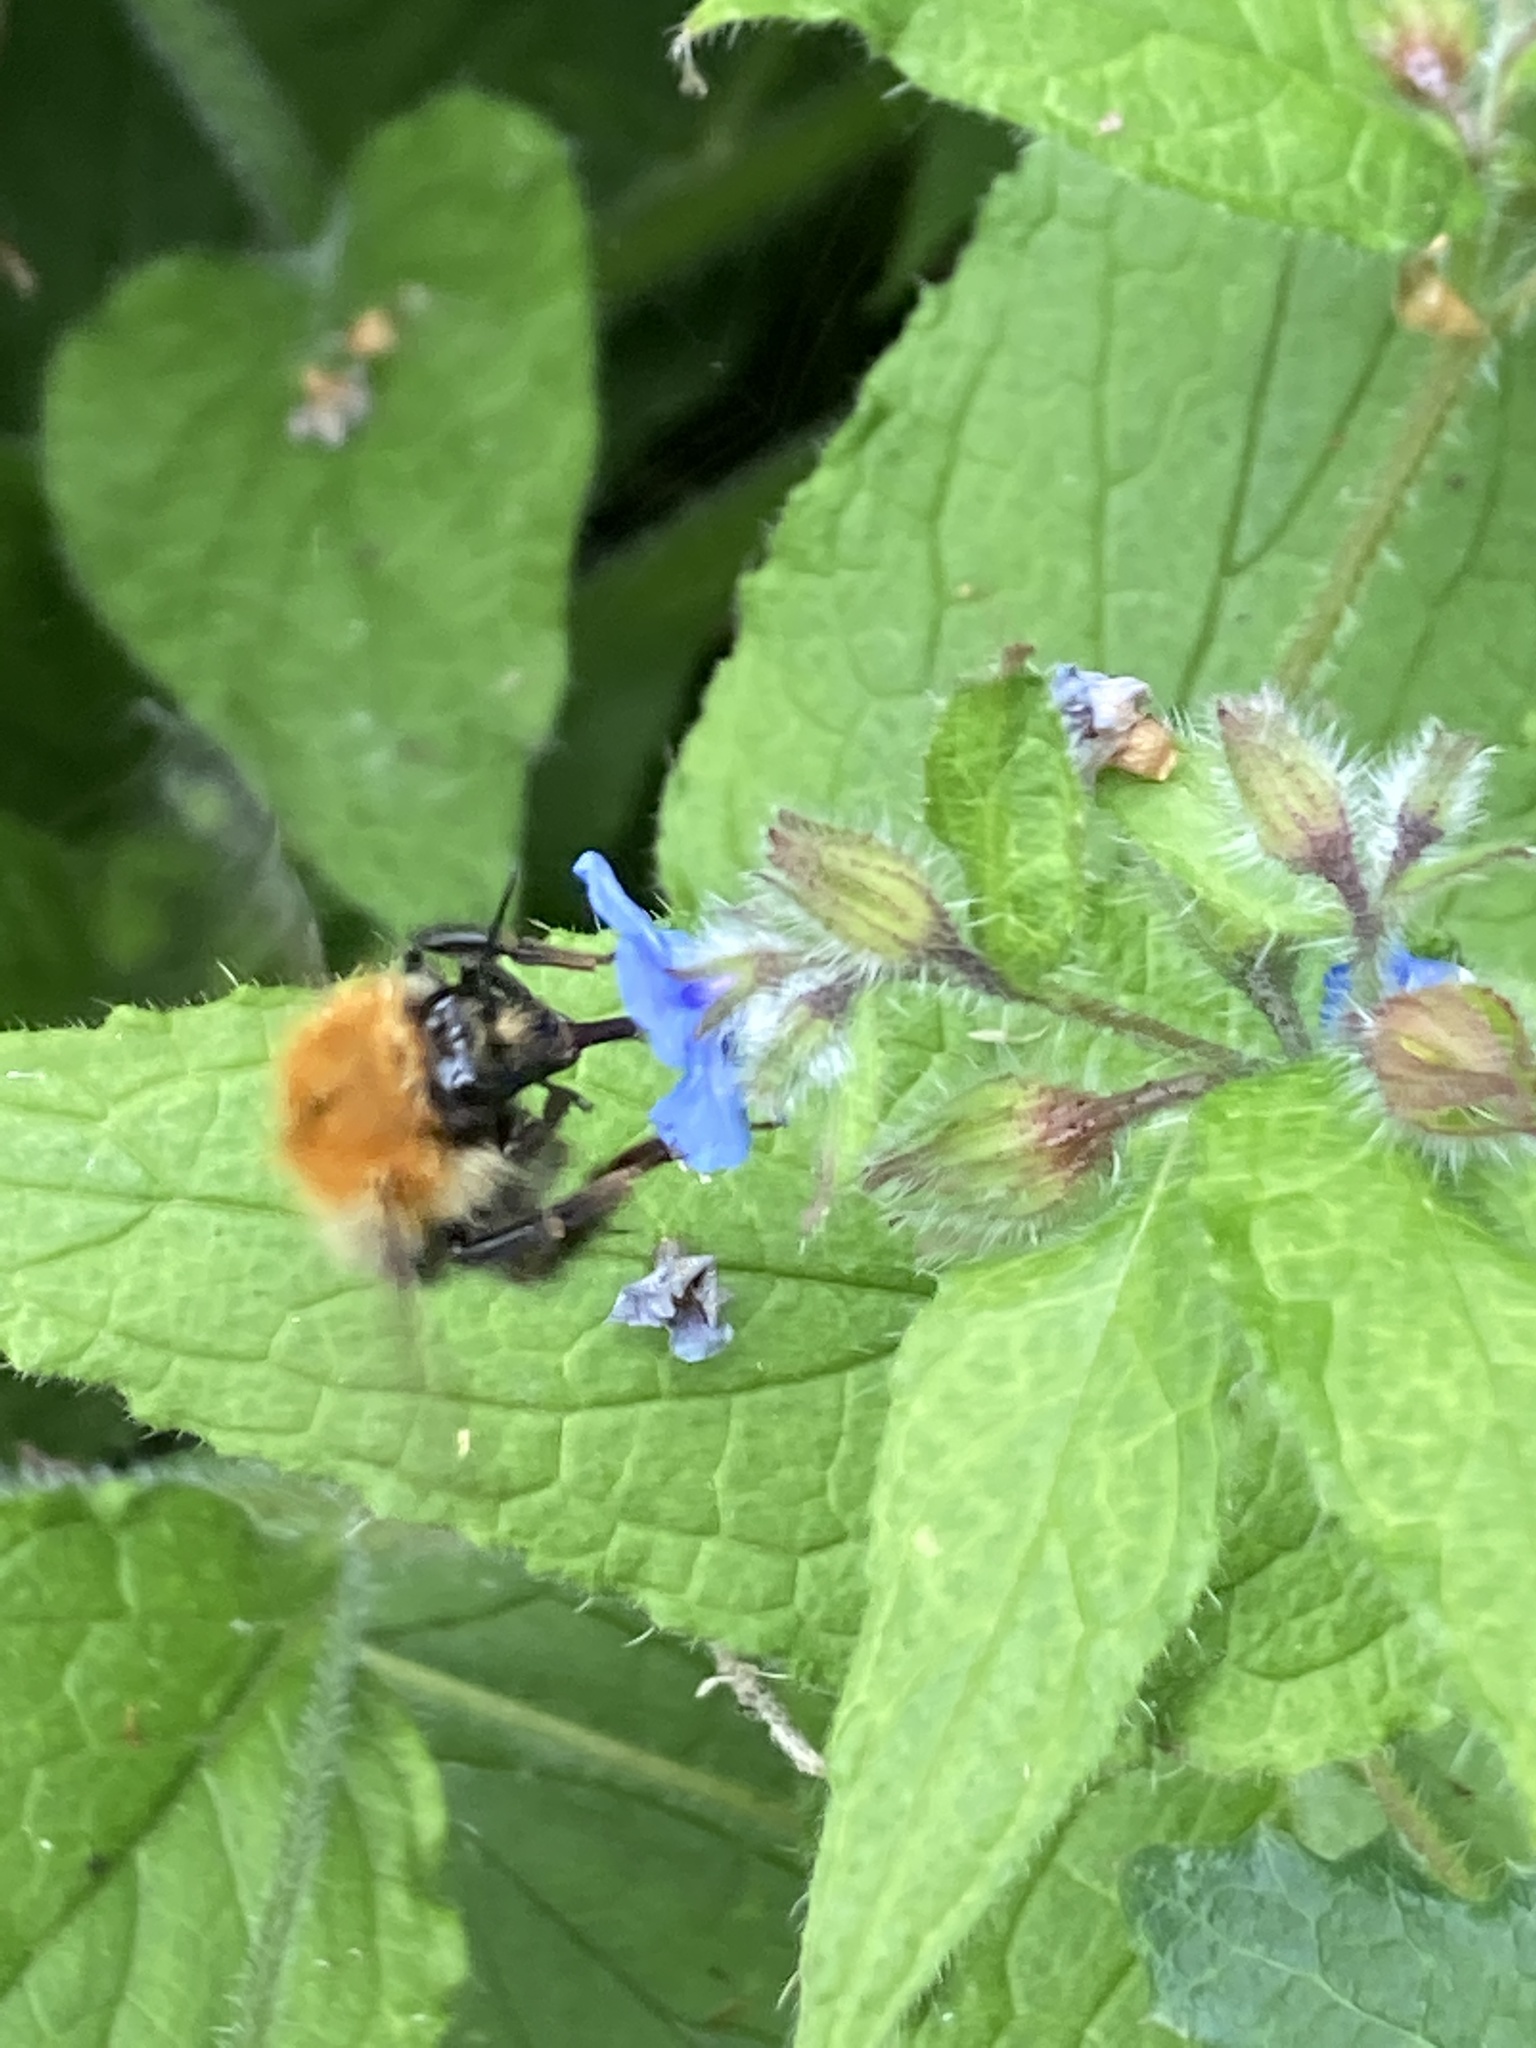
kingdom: Animalia
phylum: Arthropoda
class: Insecta
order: Hymenoptera
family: Apidae
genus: Bombus
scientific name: Bombus pascuorum
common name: Common carder bee
